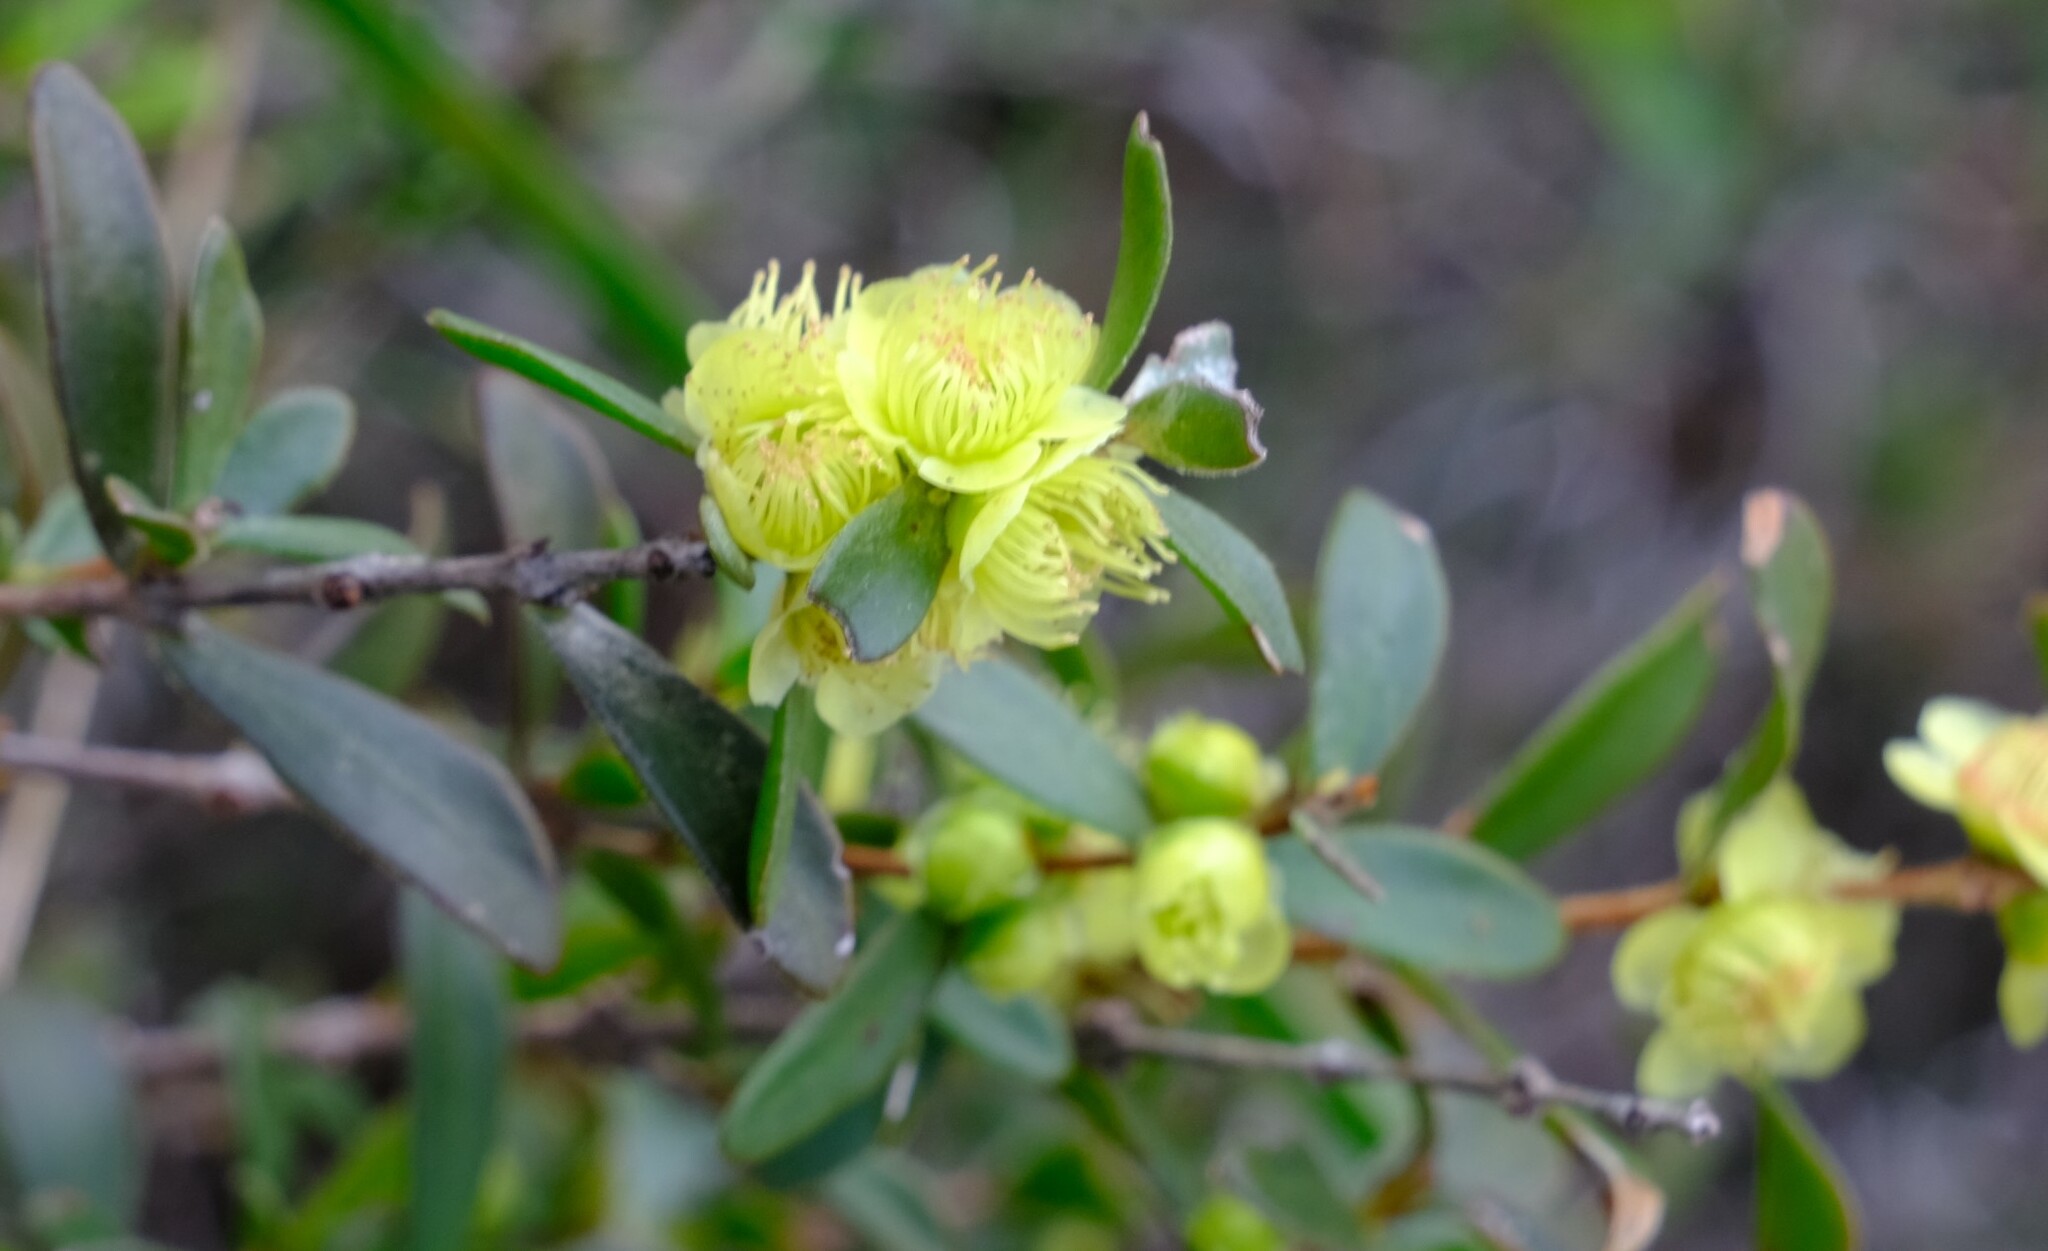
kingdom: Plantae
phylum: Tracheophyta
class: Magnoliopsida
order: Myrtales
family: Myrtaceae
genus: Hypocalymma
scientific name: Hypocalymma xanthopetalum
